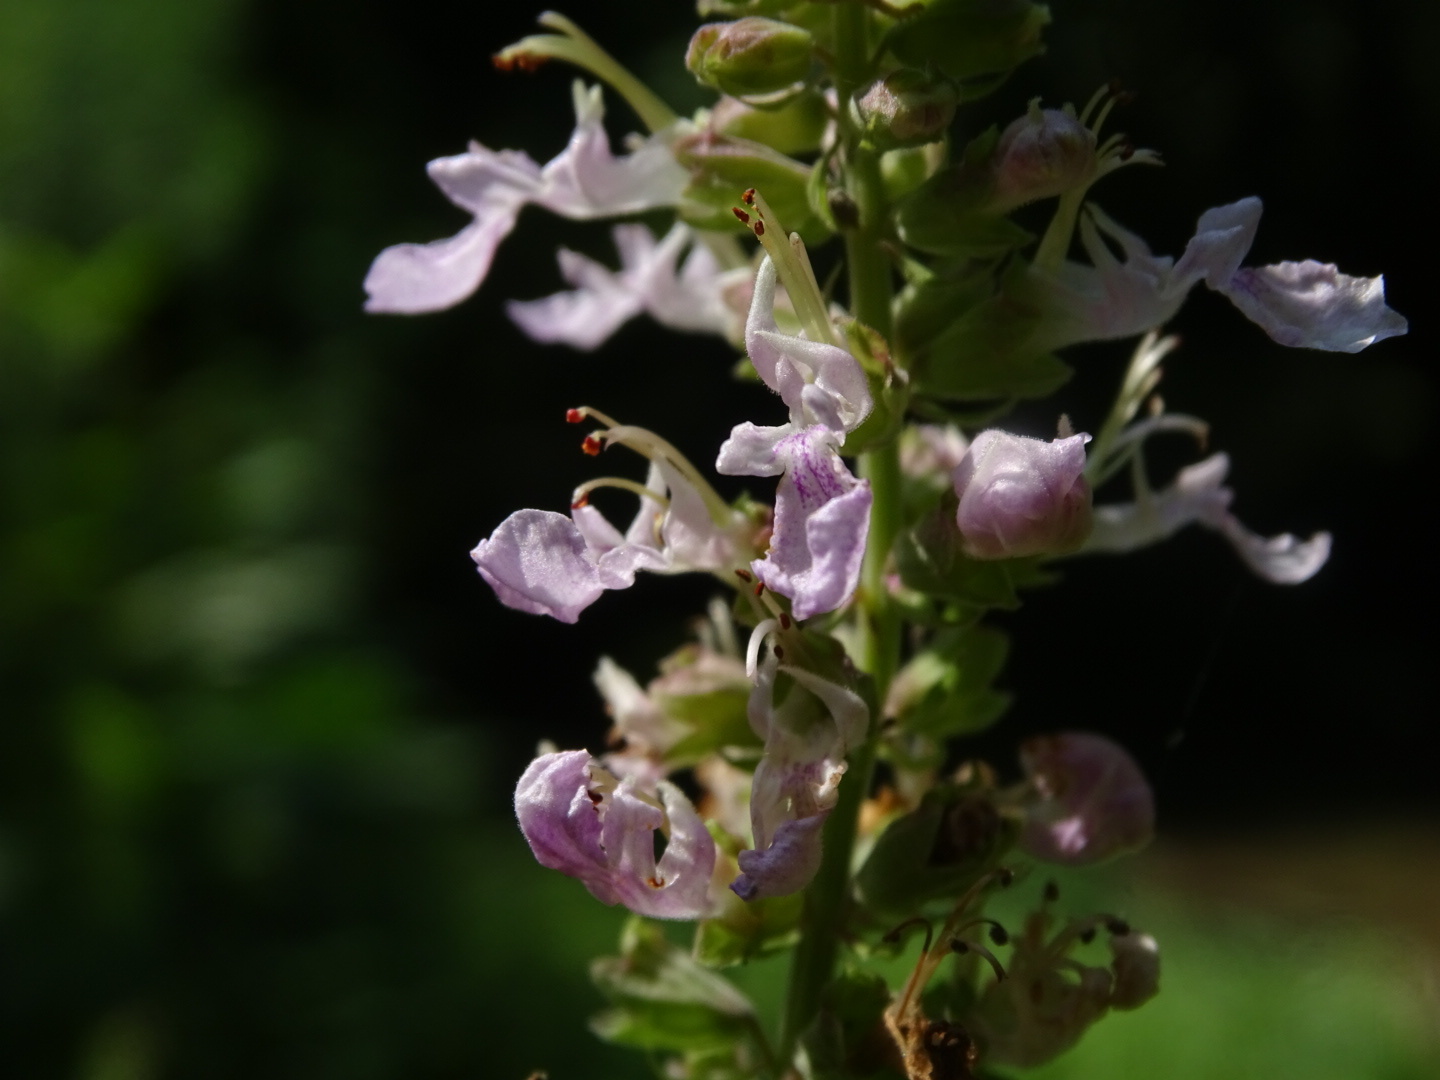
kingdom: Plantae
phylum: Tracheophyta
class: Magnoliopsida
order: Lamiales
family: Lamiaceae
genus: Teucrium
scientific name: Teucrium canadense
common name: American germander
